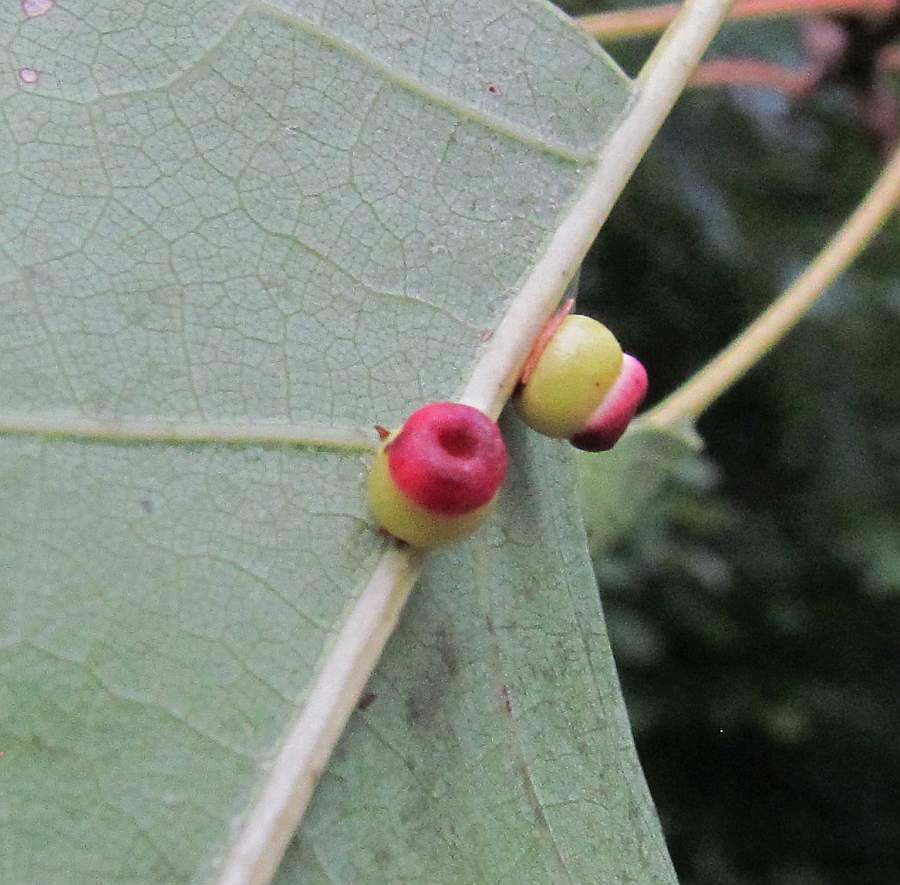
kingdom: Animalia
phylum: Arthropoda
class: Insecta
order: Hymenoptera
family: Cynipidae
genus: Kokkocynips
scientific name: Kokkocynips rileyi
